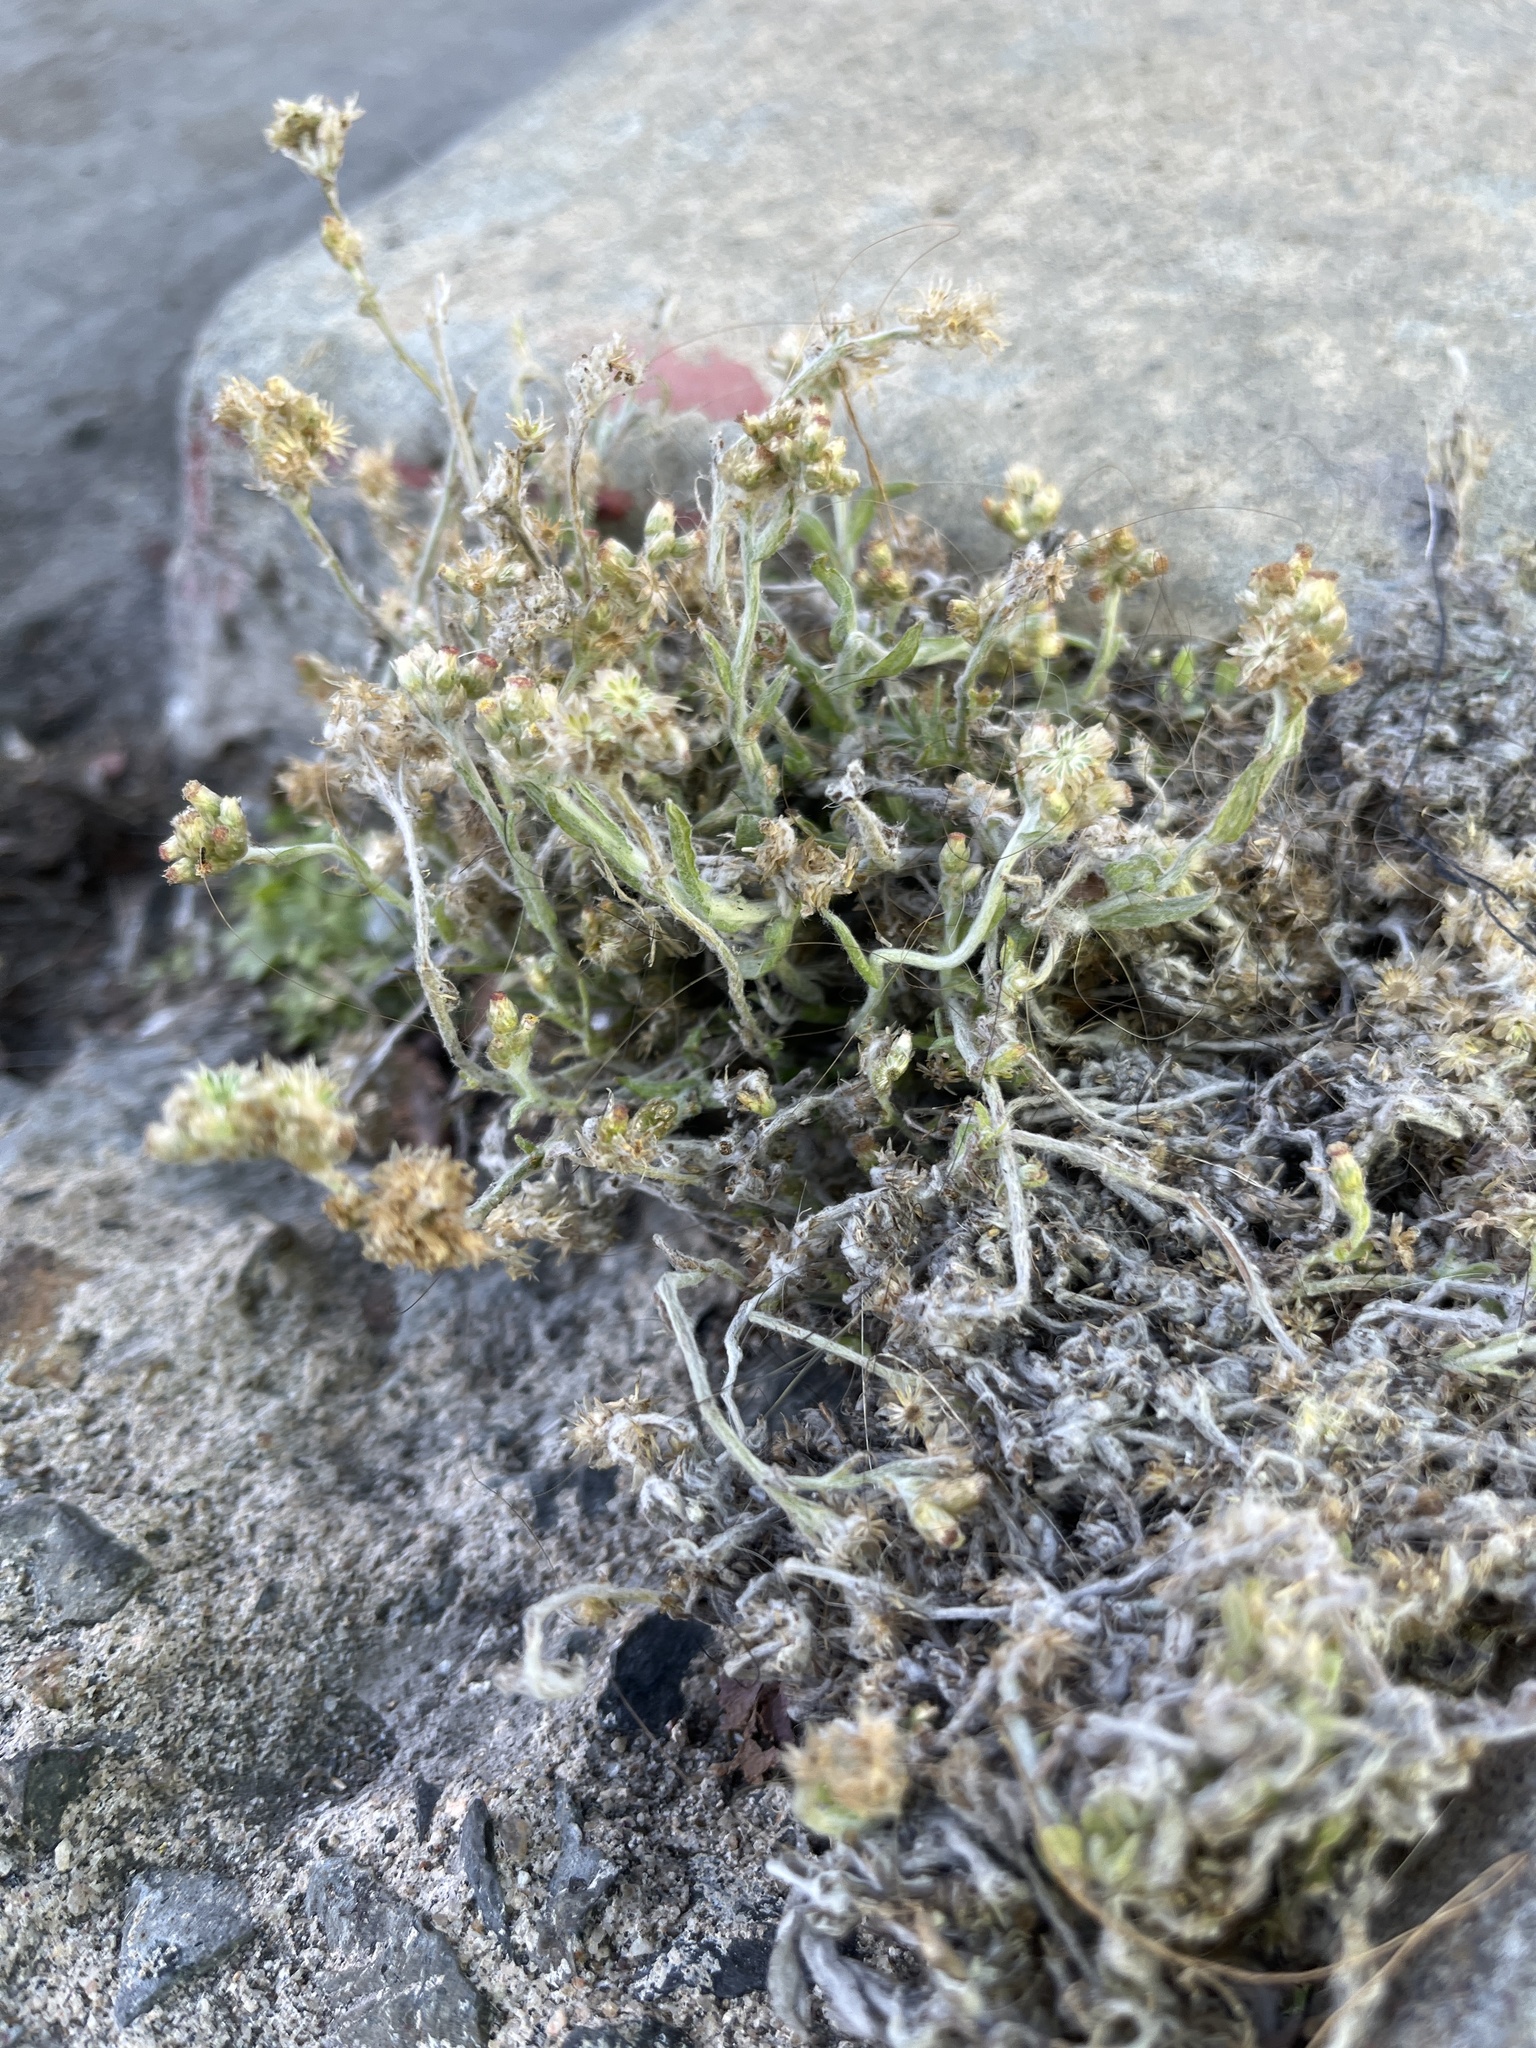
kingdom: Plantae
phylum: Tracheophyta
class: Magnoliopsida
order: Asterales
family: Asteraceae
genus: Helichrysum
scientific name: Helichrysum luteoalbum
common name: Daisy
